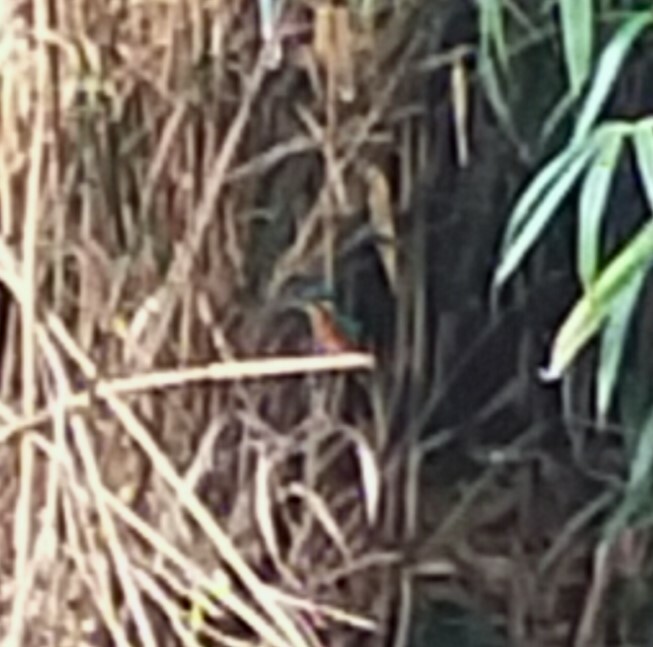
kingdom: Animalia
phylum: Chordata
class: Aves
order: Coraciiformes
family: Alcedinidae
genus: Alcedo
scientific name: Alcedo atthis
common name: Common kingfisher
